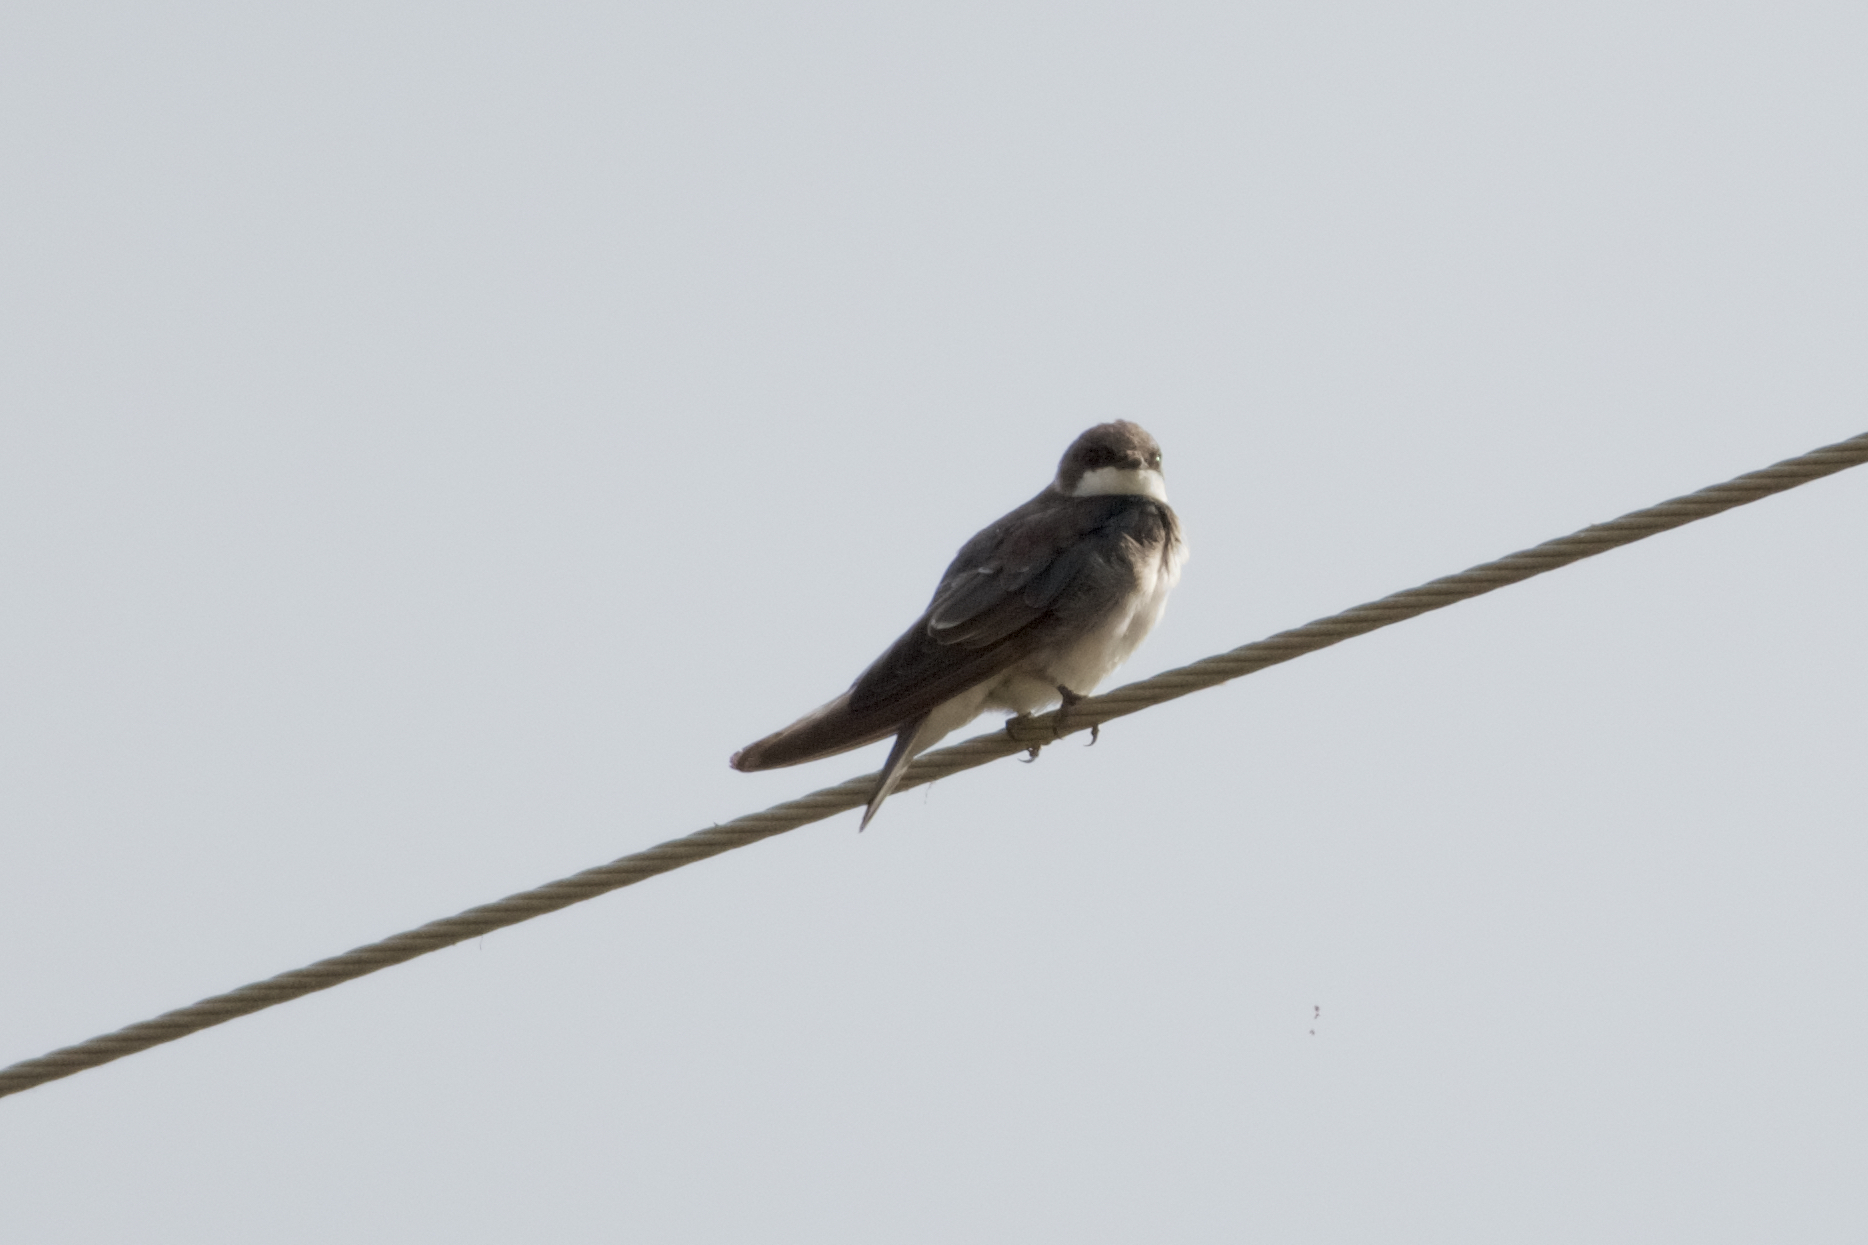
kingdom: Animalia
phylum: Chordata
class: Aves
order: Passeriformes
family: Hirundinidae
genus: Riparia
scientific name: Riparia riparia
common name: Sand martin
